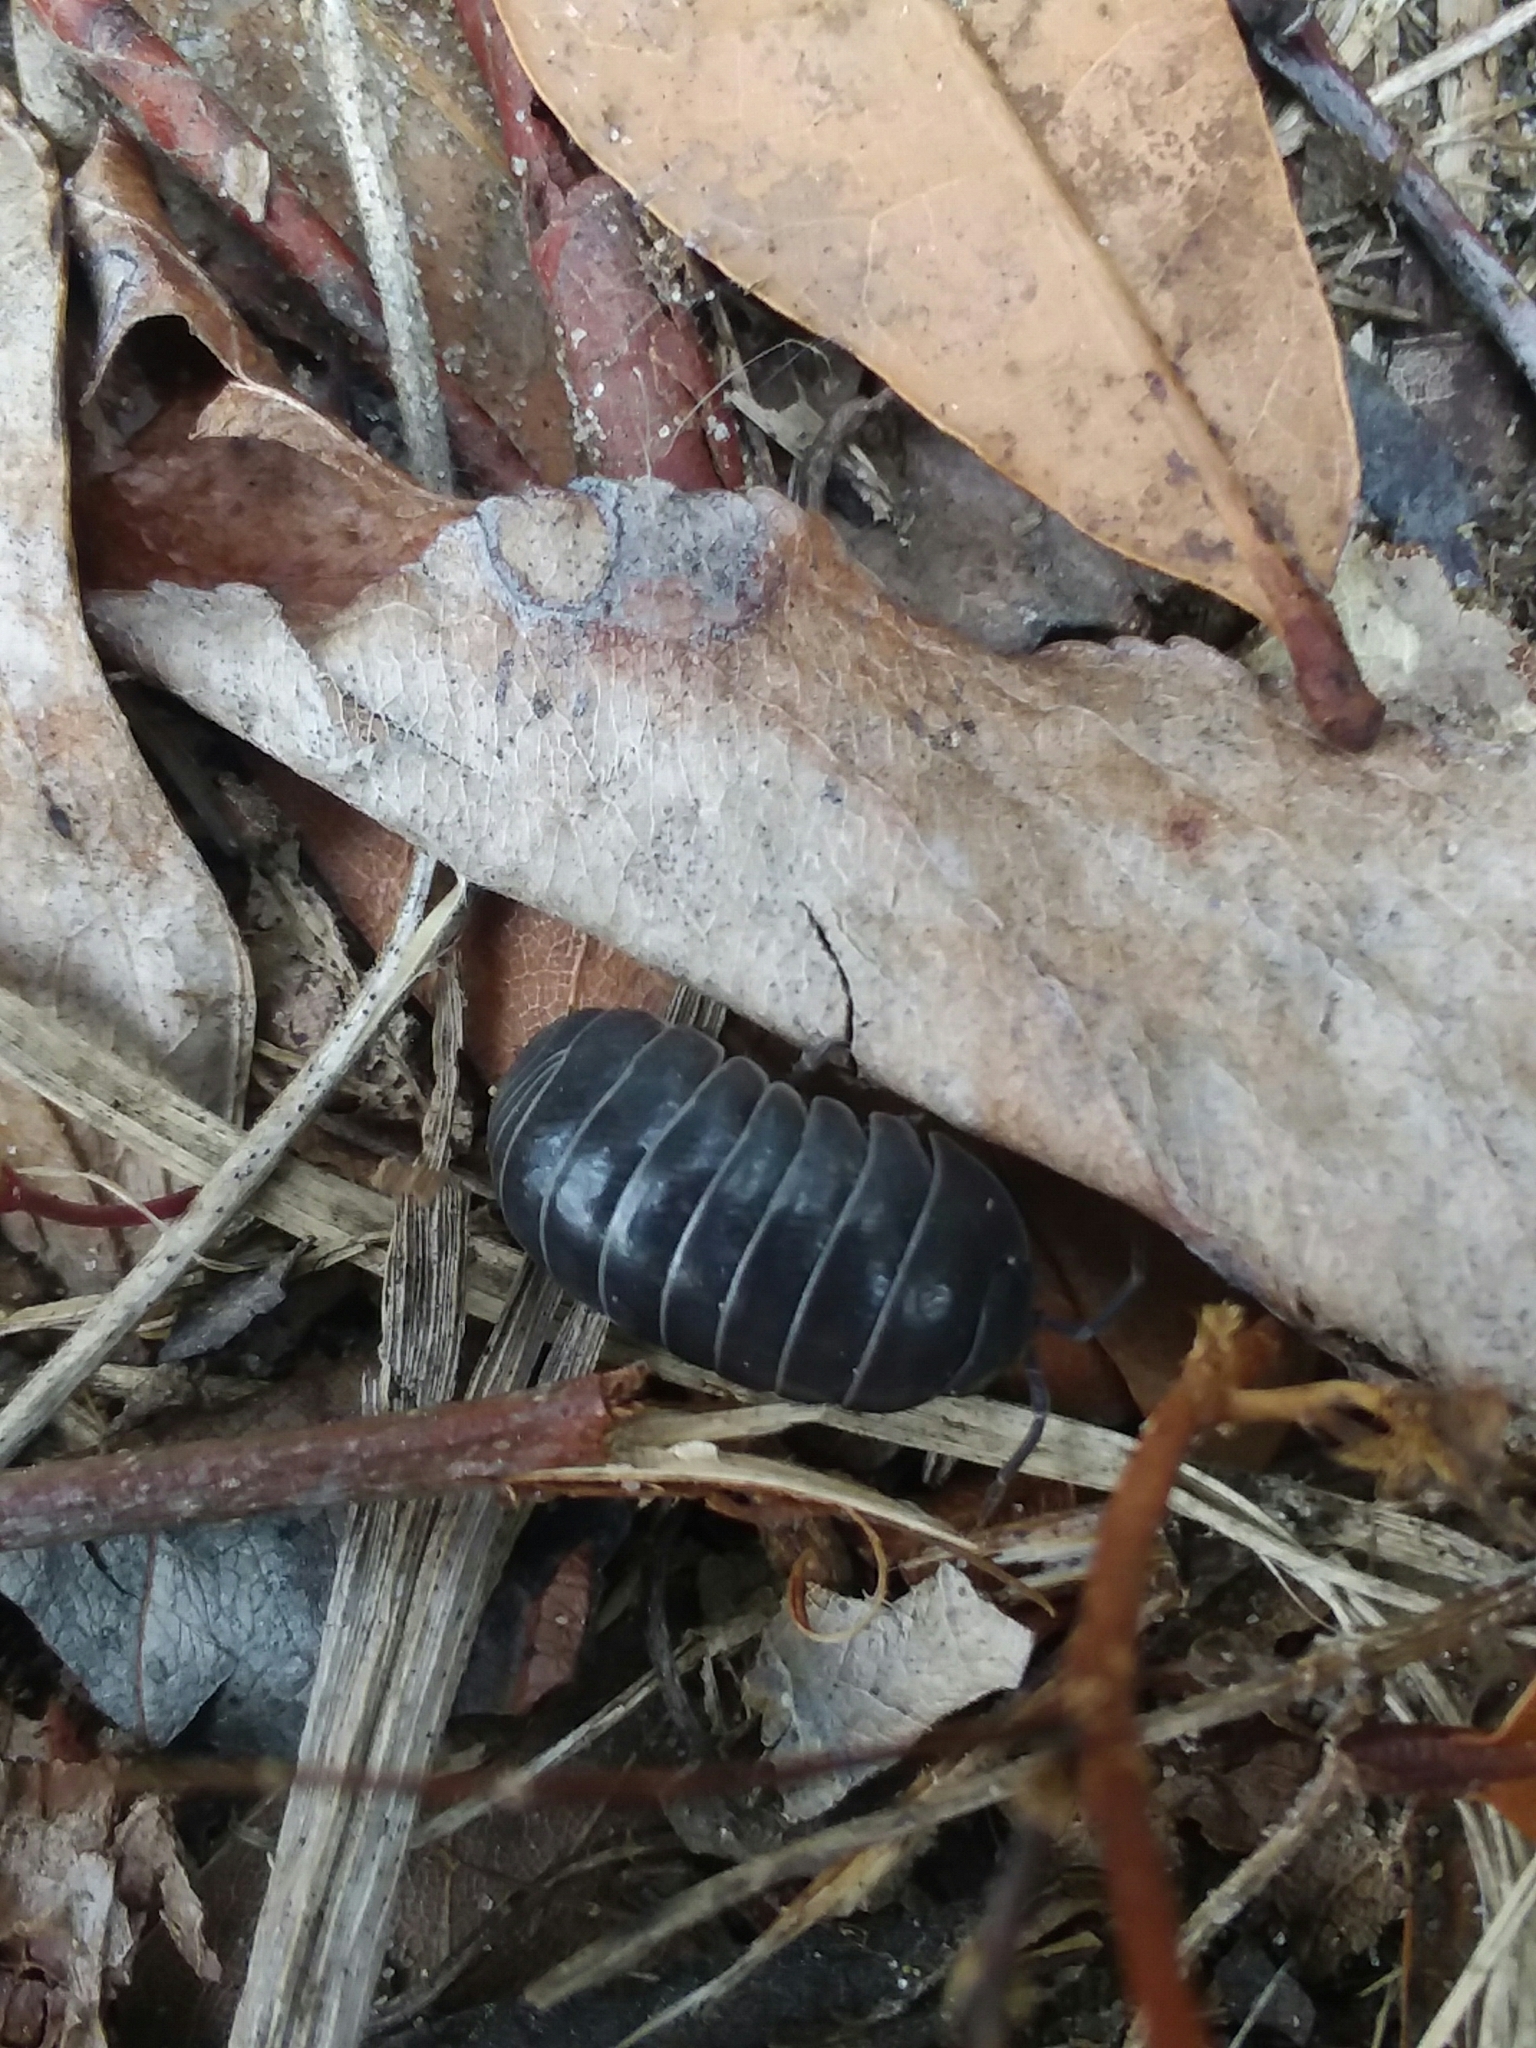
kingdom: Animalia
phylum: Arthropoda
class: Malacostraca
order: Isopoda
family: Armadillidiidae
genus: Armadillidium
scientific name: Armadillidium vulgare
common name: Common pill woodlouse
